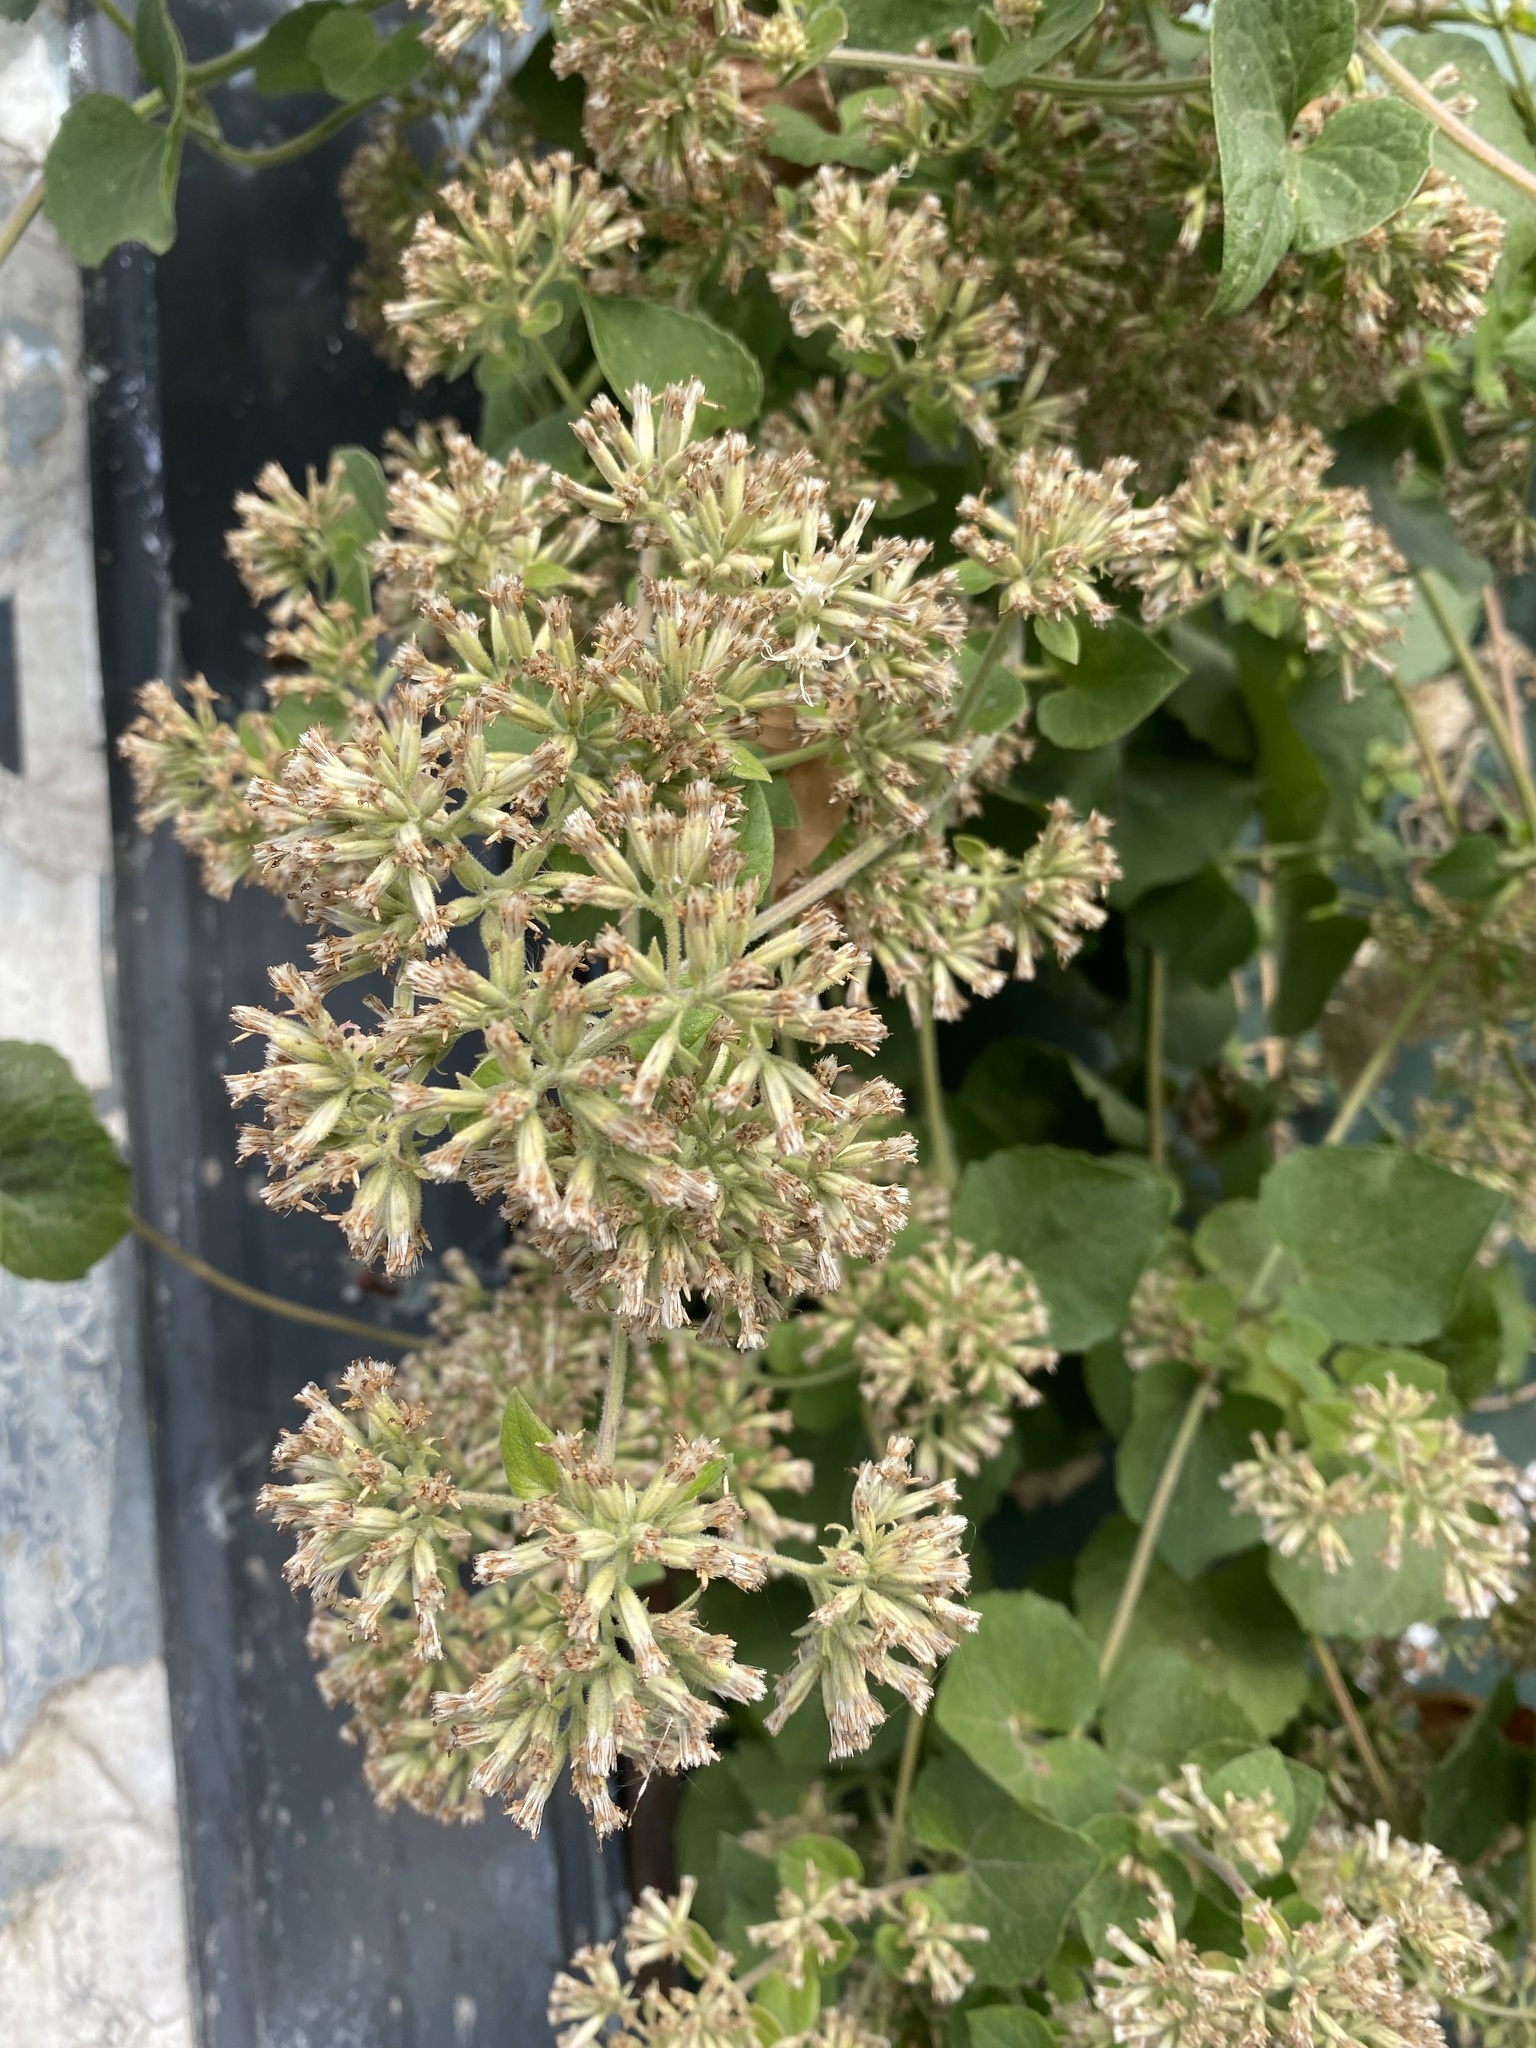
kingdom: Plantae
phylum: Tracheophyta
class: Magnoliopsida
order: Asterales
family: Asteraceae
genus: Mikania
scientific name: Mikania cordifolia
